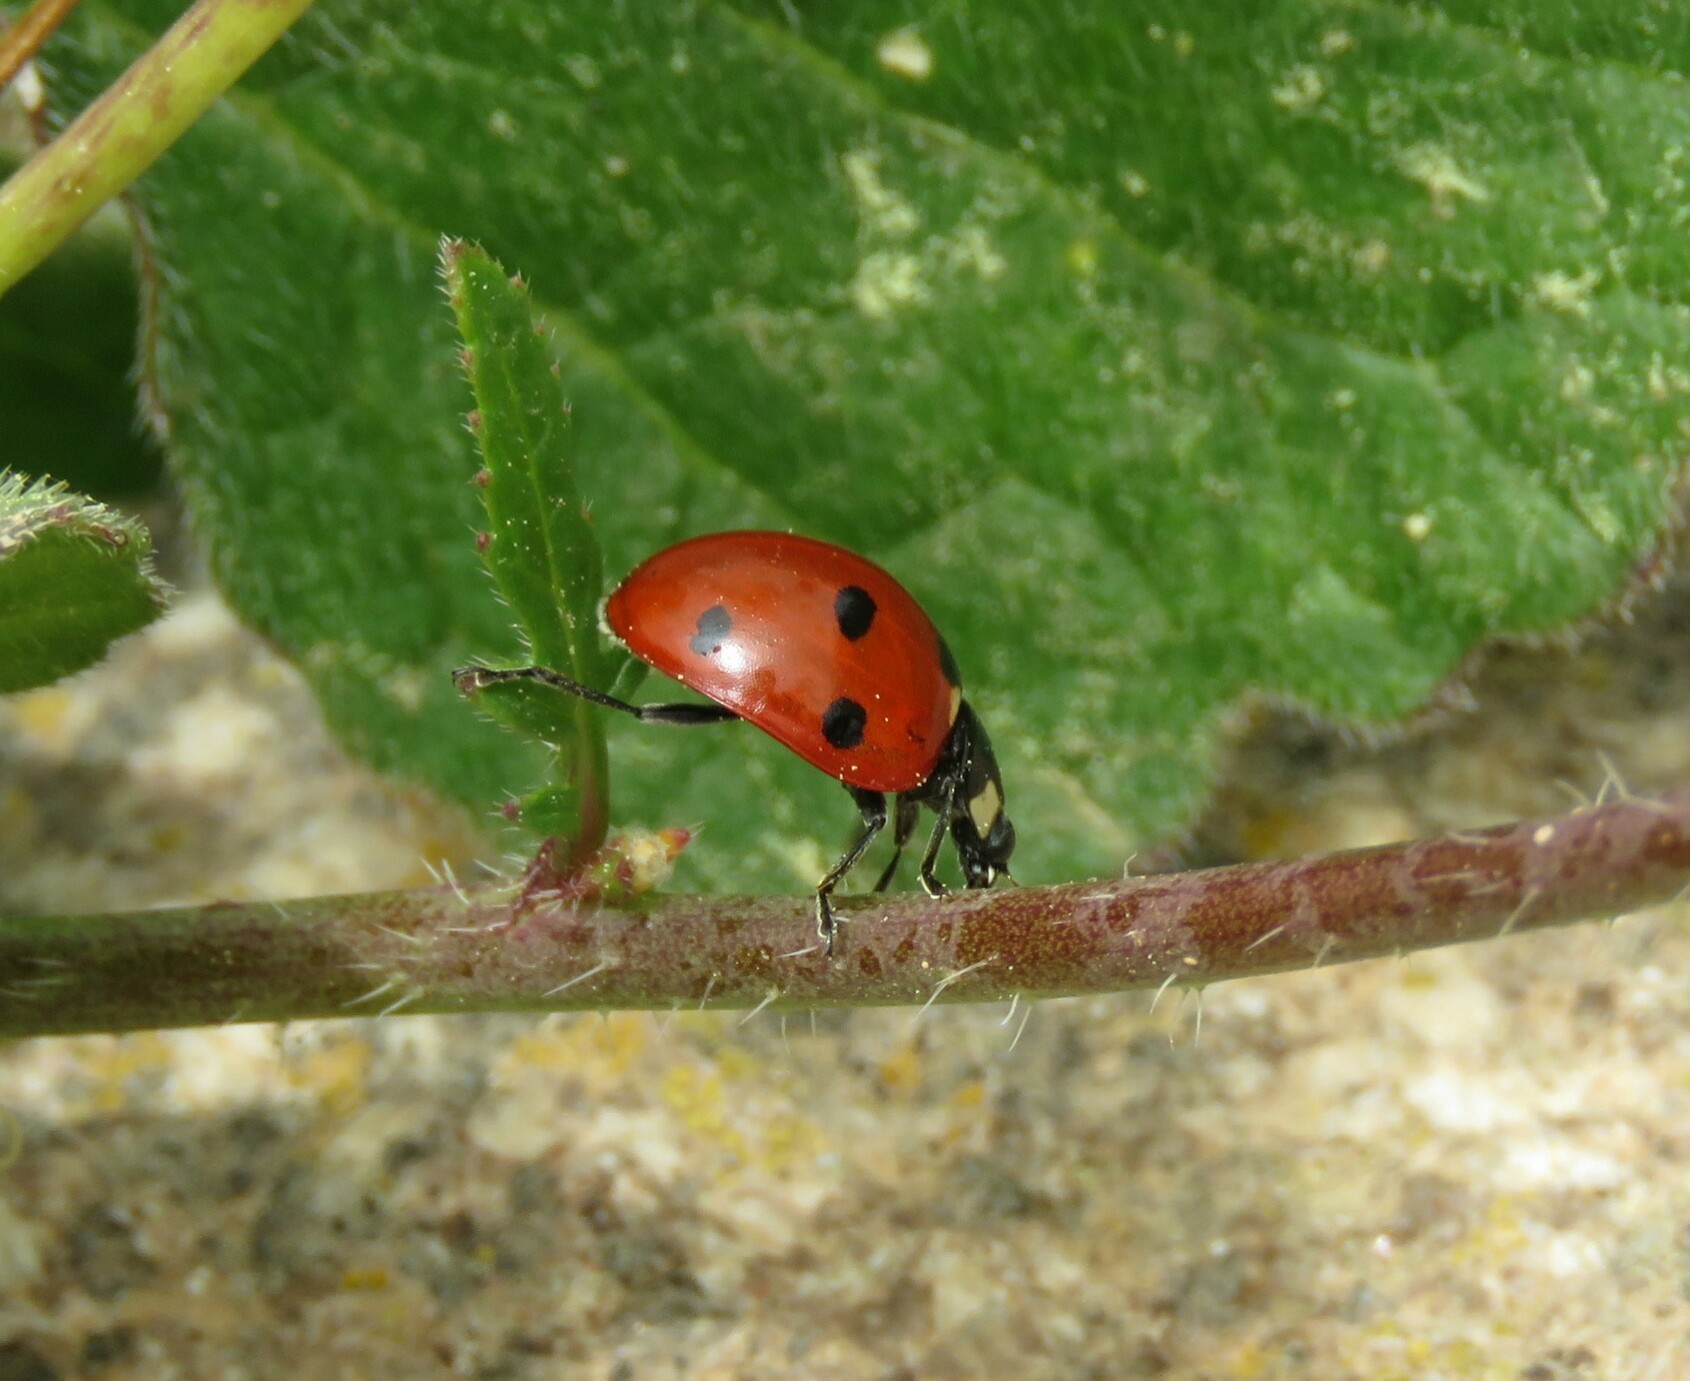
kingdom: Animalia
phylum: Arthropoda
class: Insecta
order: Coleoptera
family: Coccinellidae
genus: Coccinella
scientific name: Coccinella septempunctata
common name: Sevenspotted lady beetle
